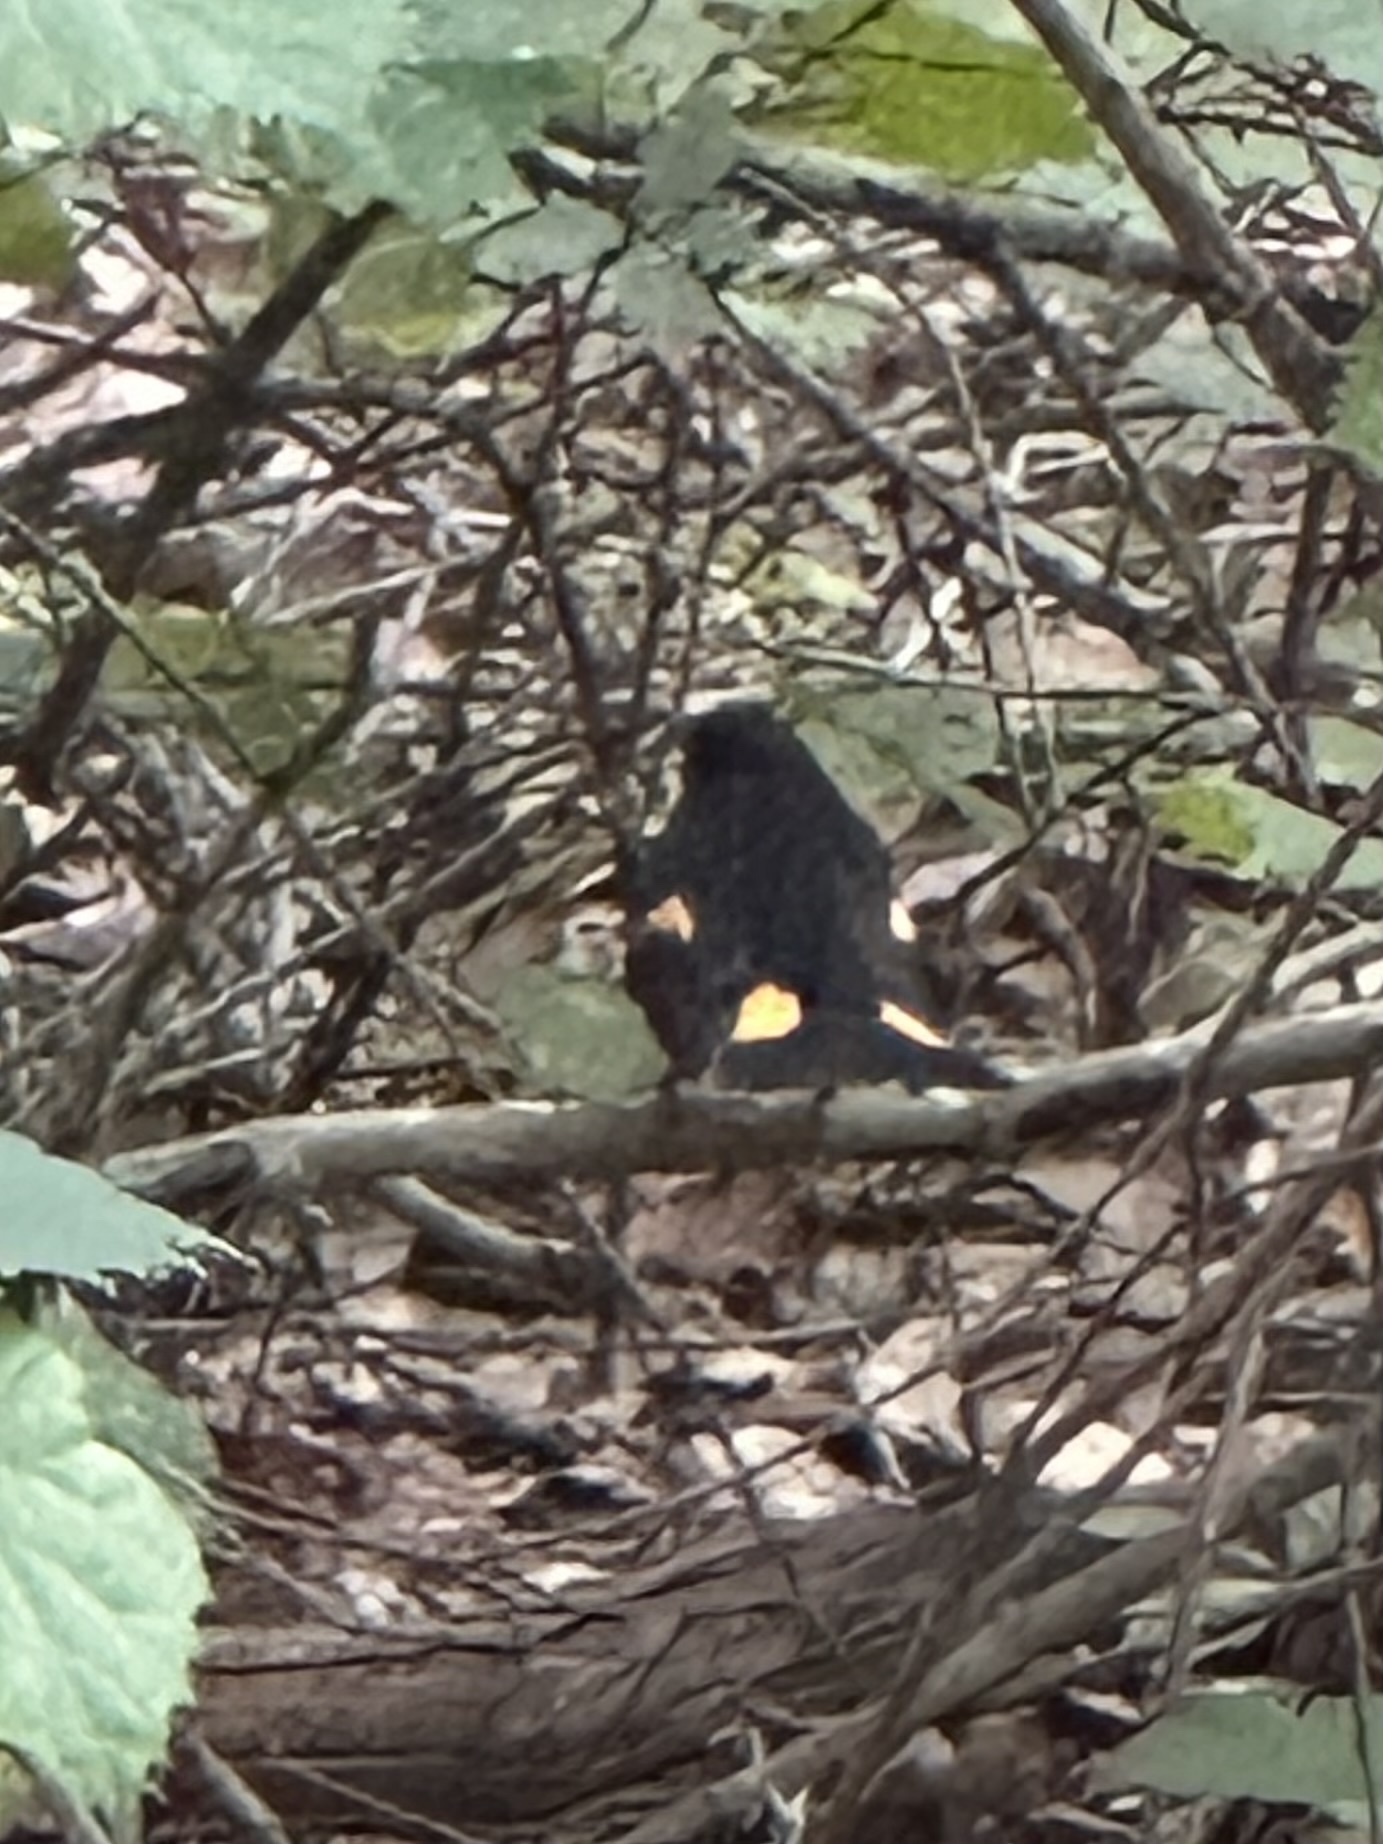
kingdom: Animalia
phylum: Chordata
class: Aves
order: Passeriformes
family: Parulidae
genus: Setophaga
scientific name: Setophaga ruticilla
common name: American redstart
